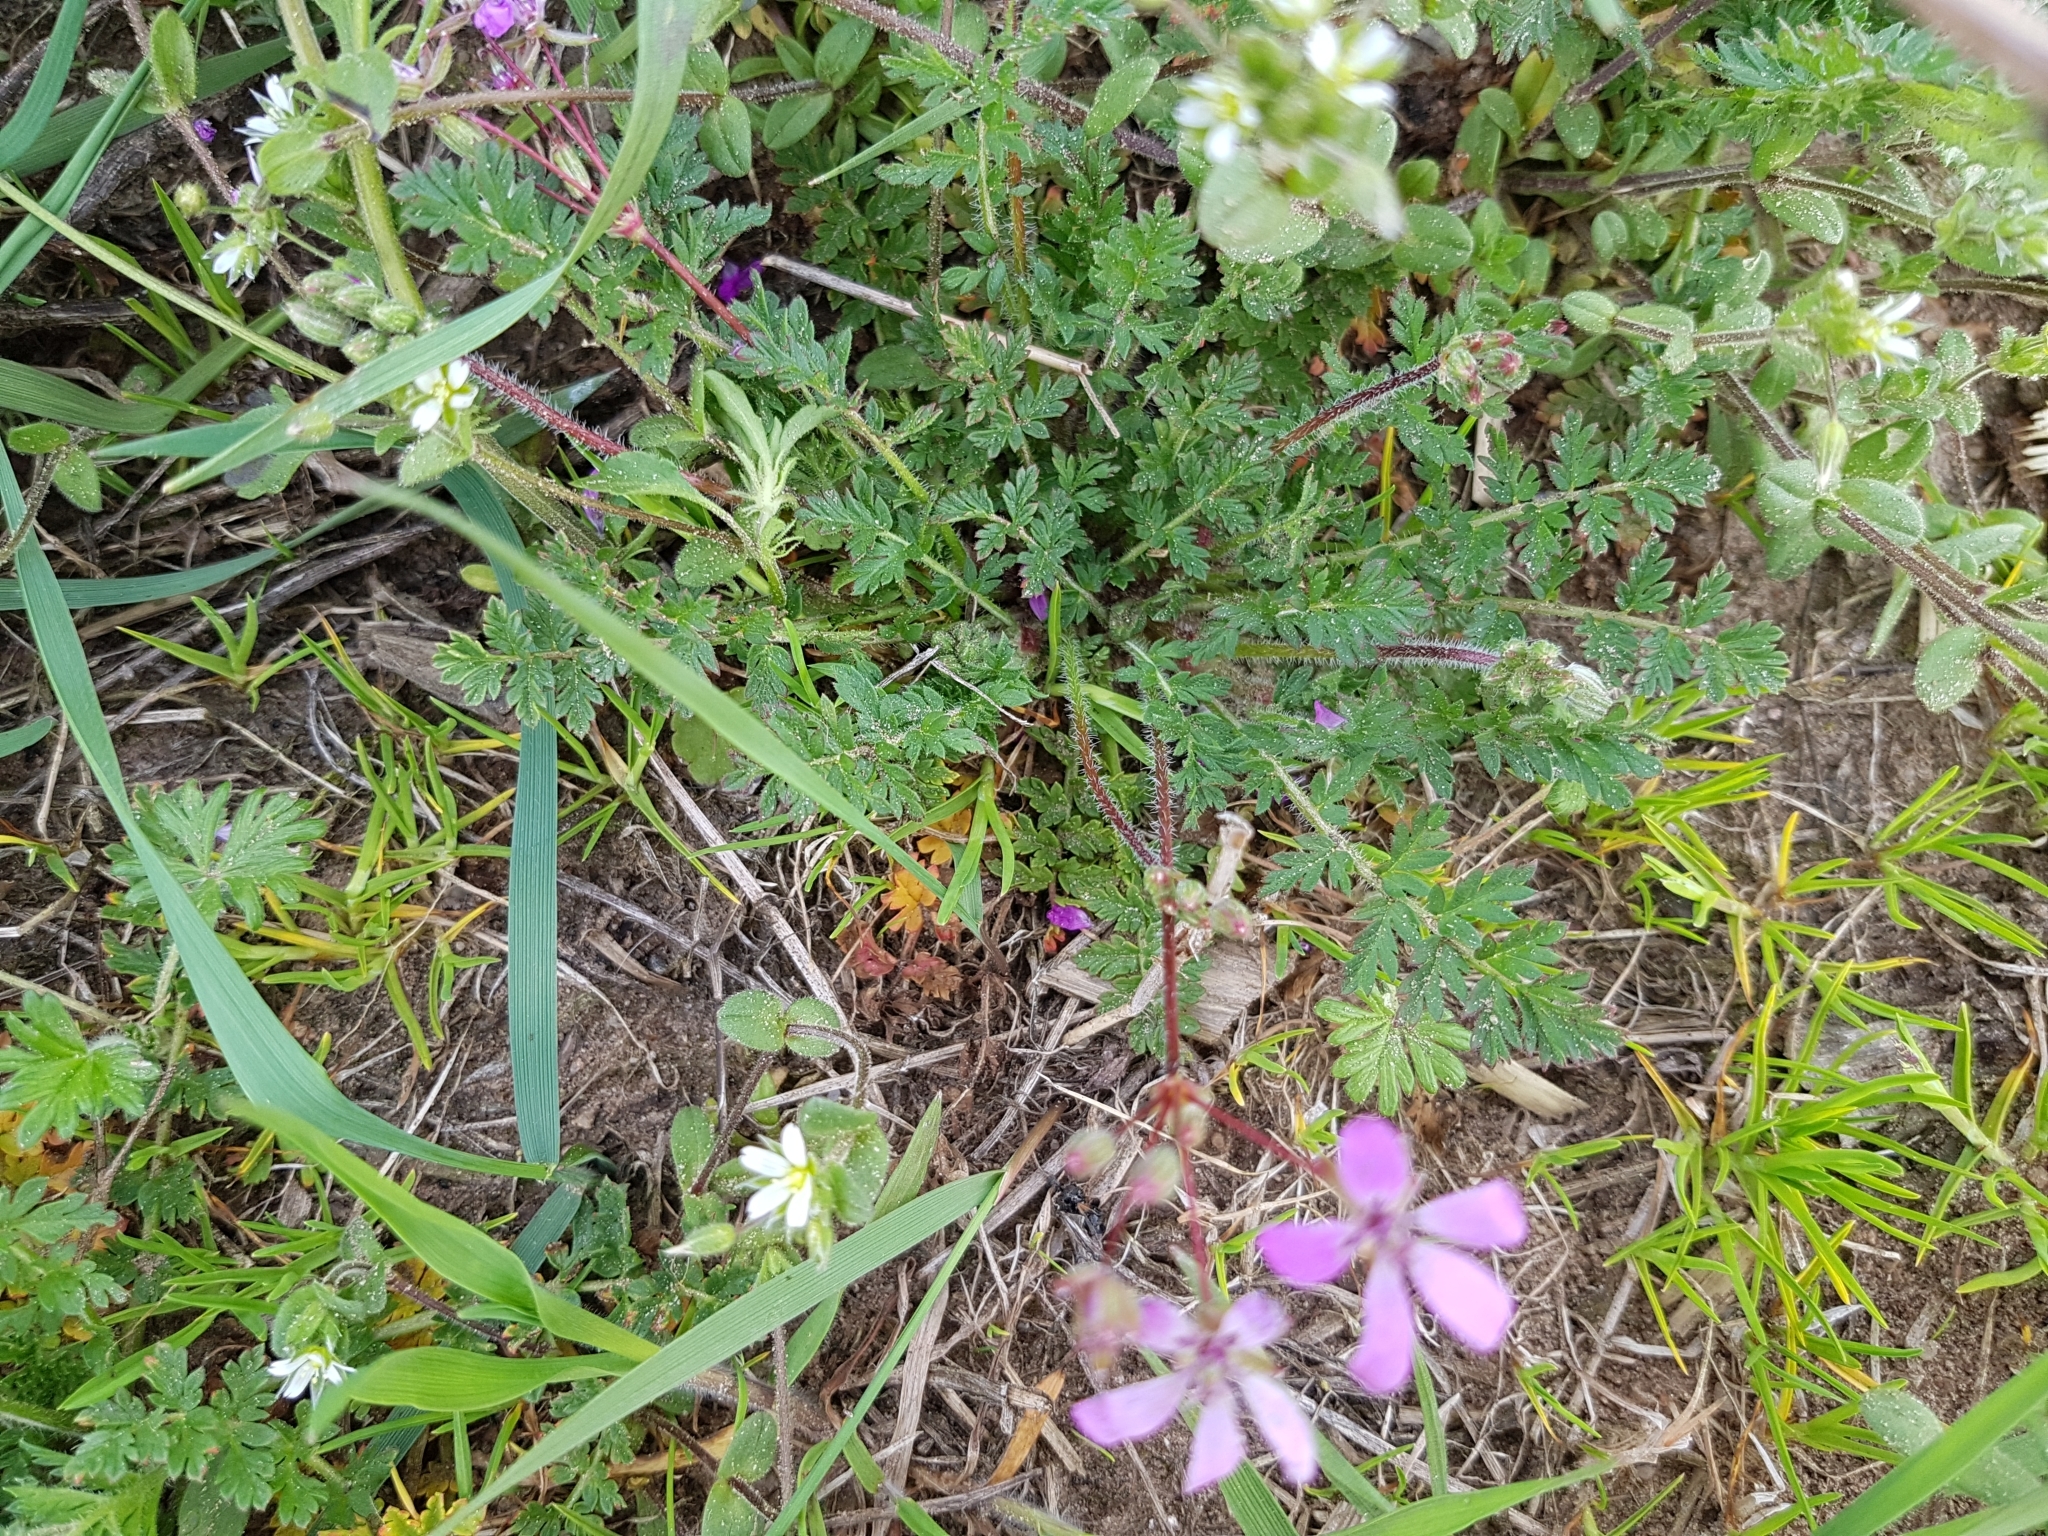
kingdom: Plantae
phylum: Tracheophyta
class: Magnoliopsida
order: Geraniales
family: Geraniaceae
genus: Erodium
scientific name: Erodium cicutarium
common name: Common stork's-bill
